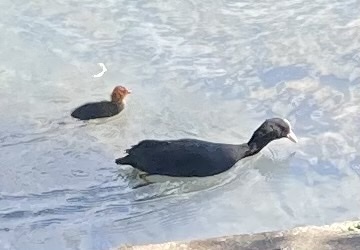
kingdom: Animalia
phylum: Chordata
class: Aves
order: Gruiformes
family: Rallidae
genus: Fulica
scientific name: Fulica atra
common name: Eurasian coot
